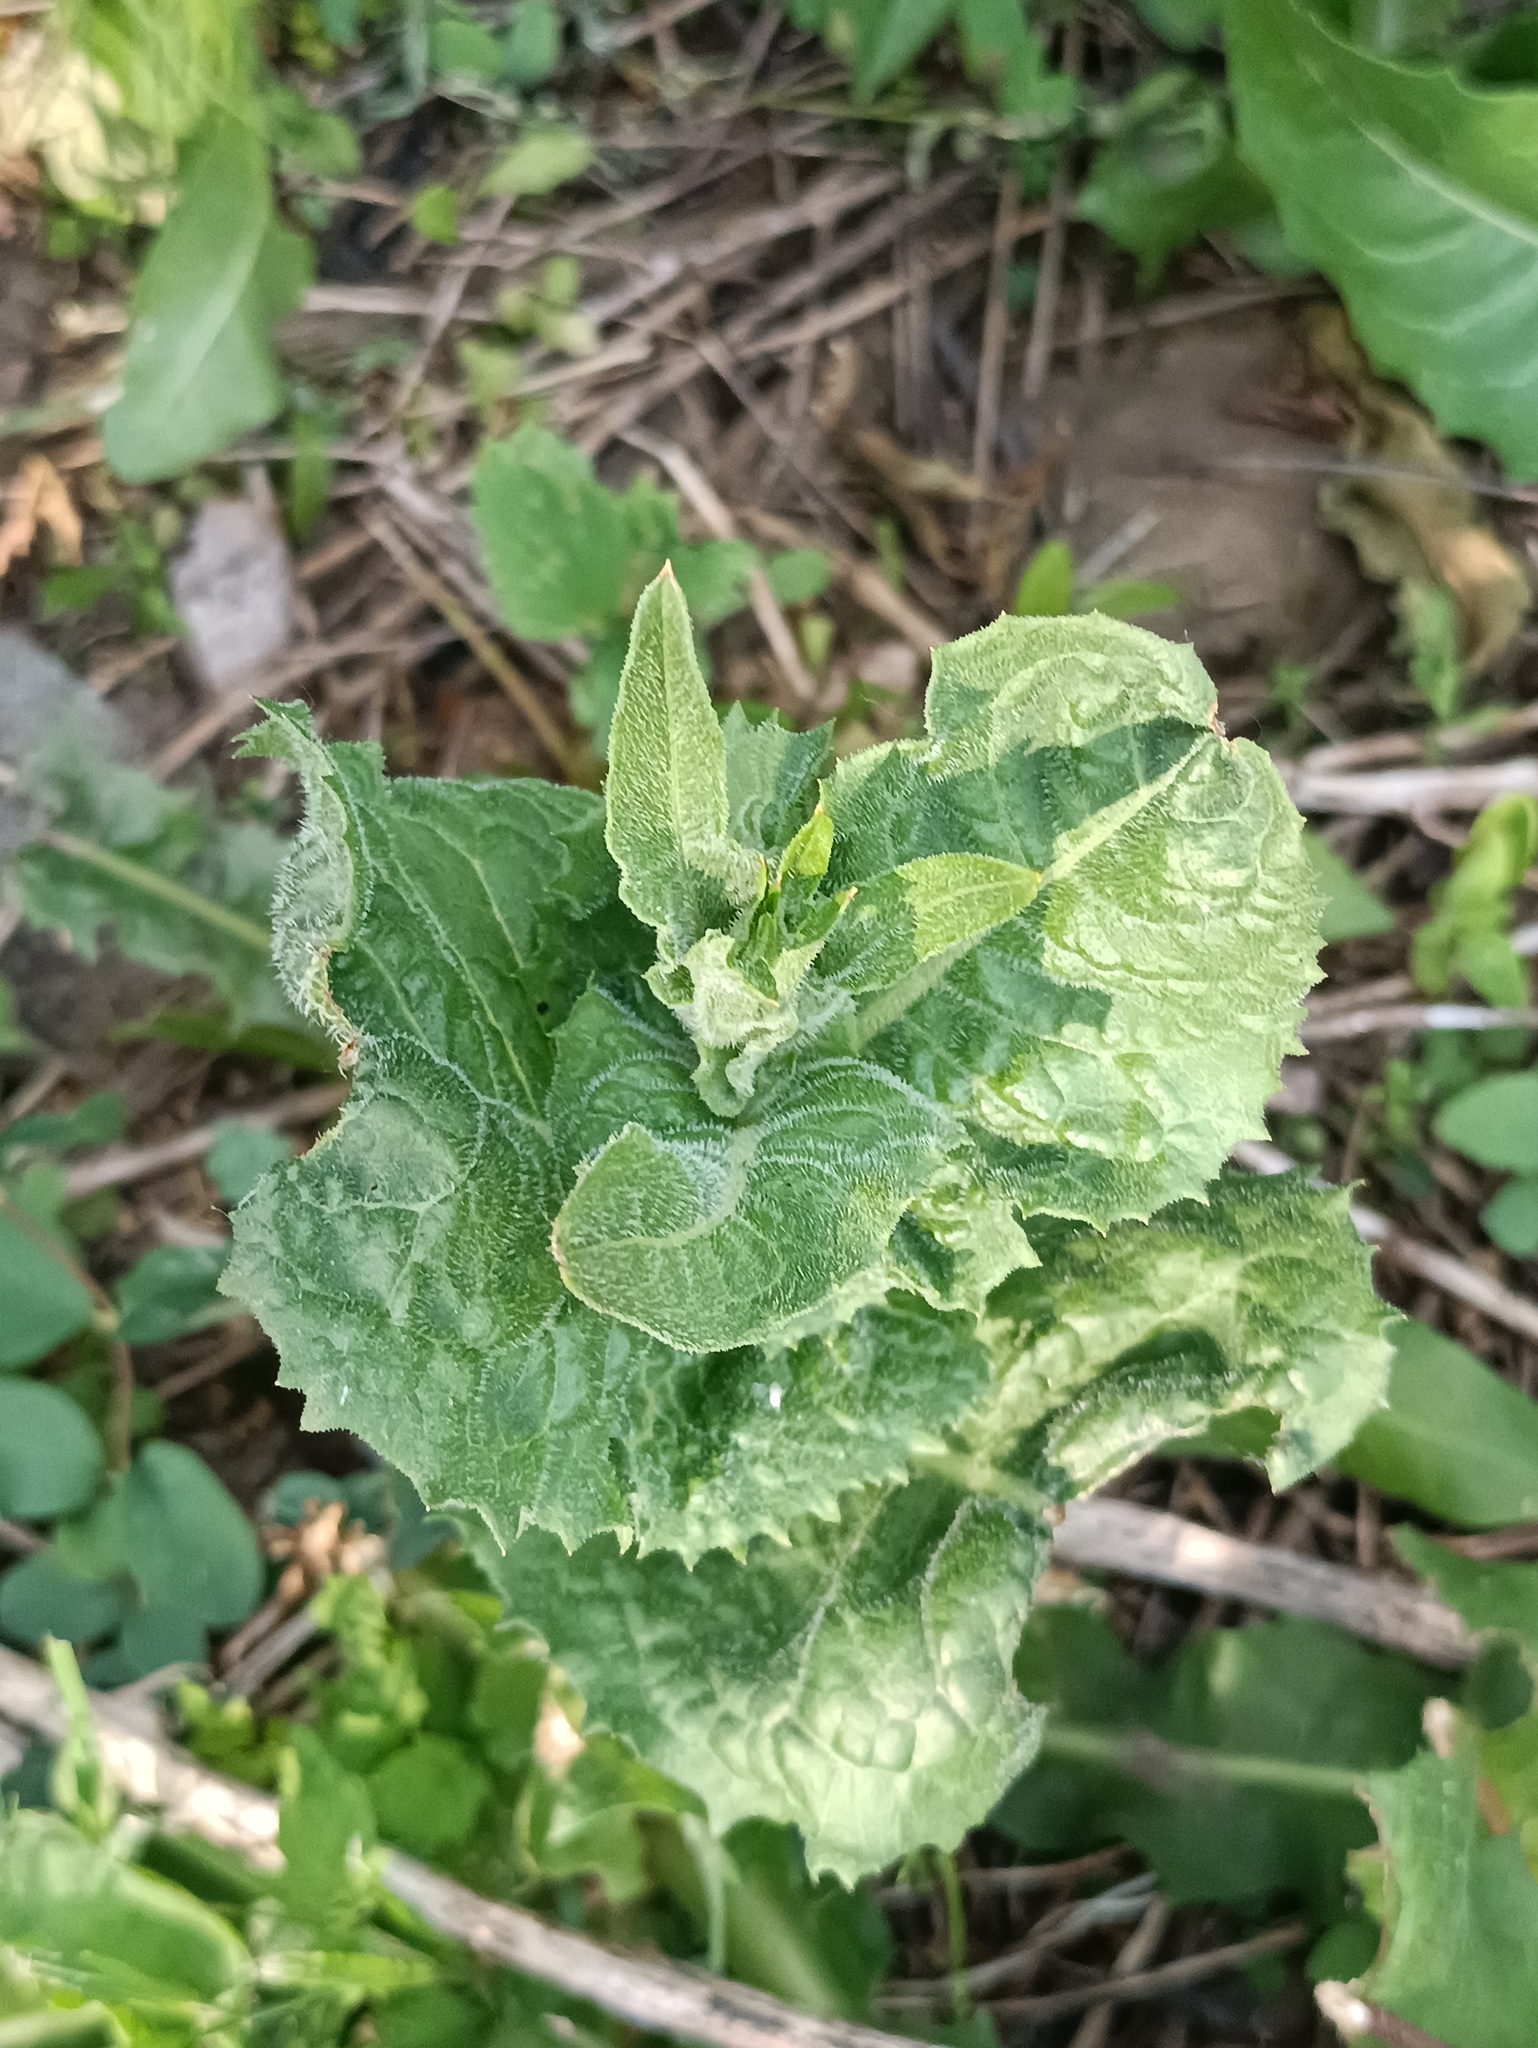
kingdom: Plantae
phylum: Tracheophyta
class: Magnoliopsida
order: Asterales
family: Asteraceae
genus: Cichorium
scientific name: Cichorium intybus
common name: Chicory
